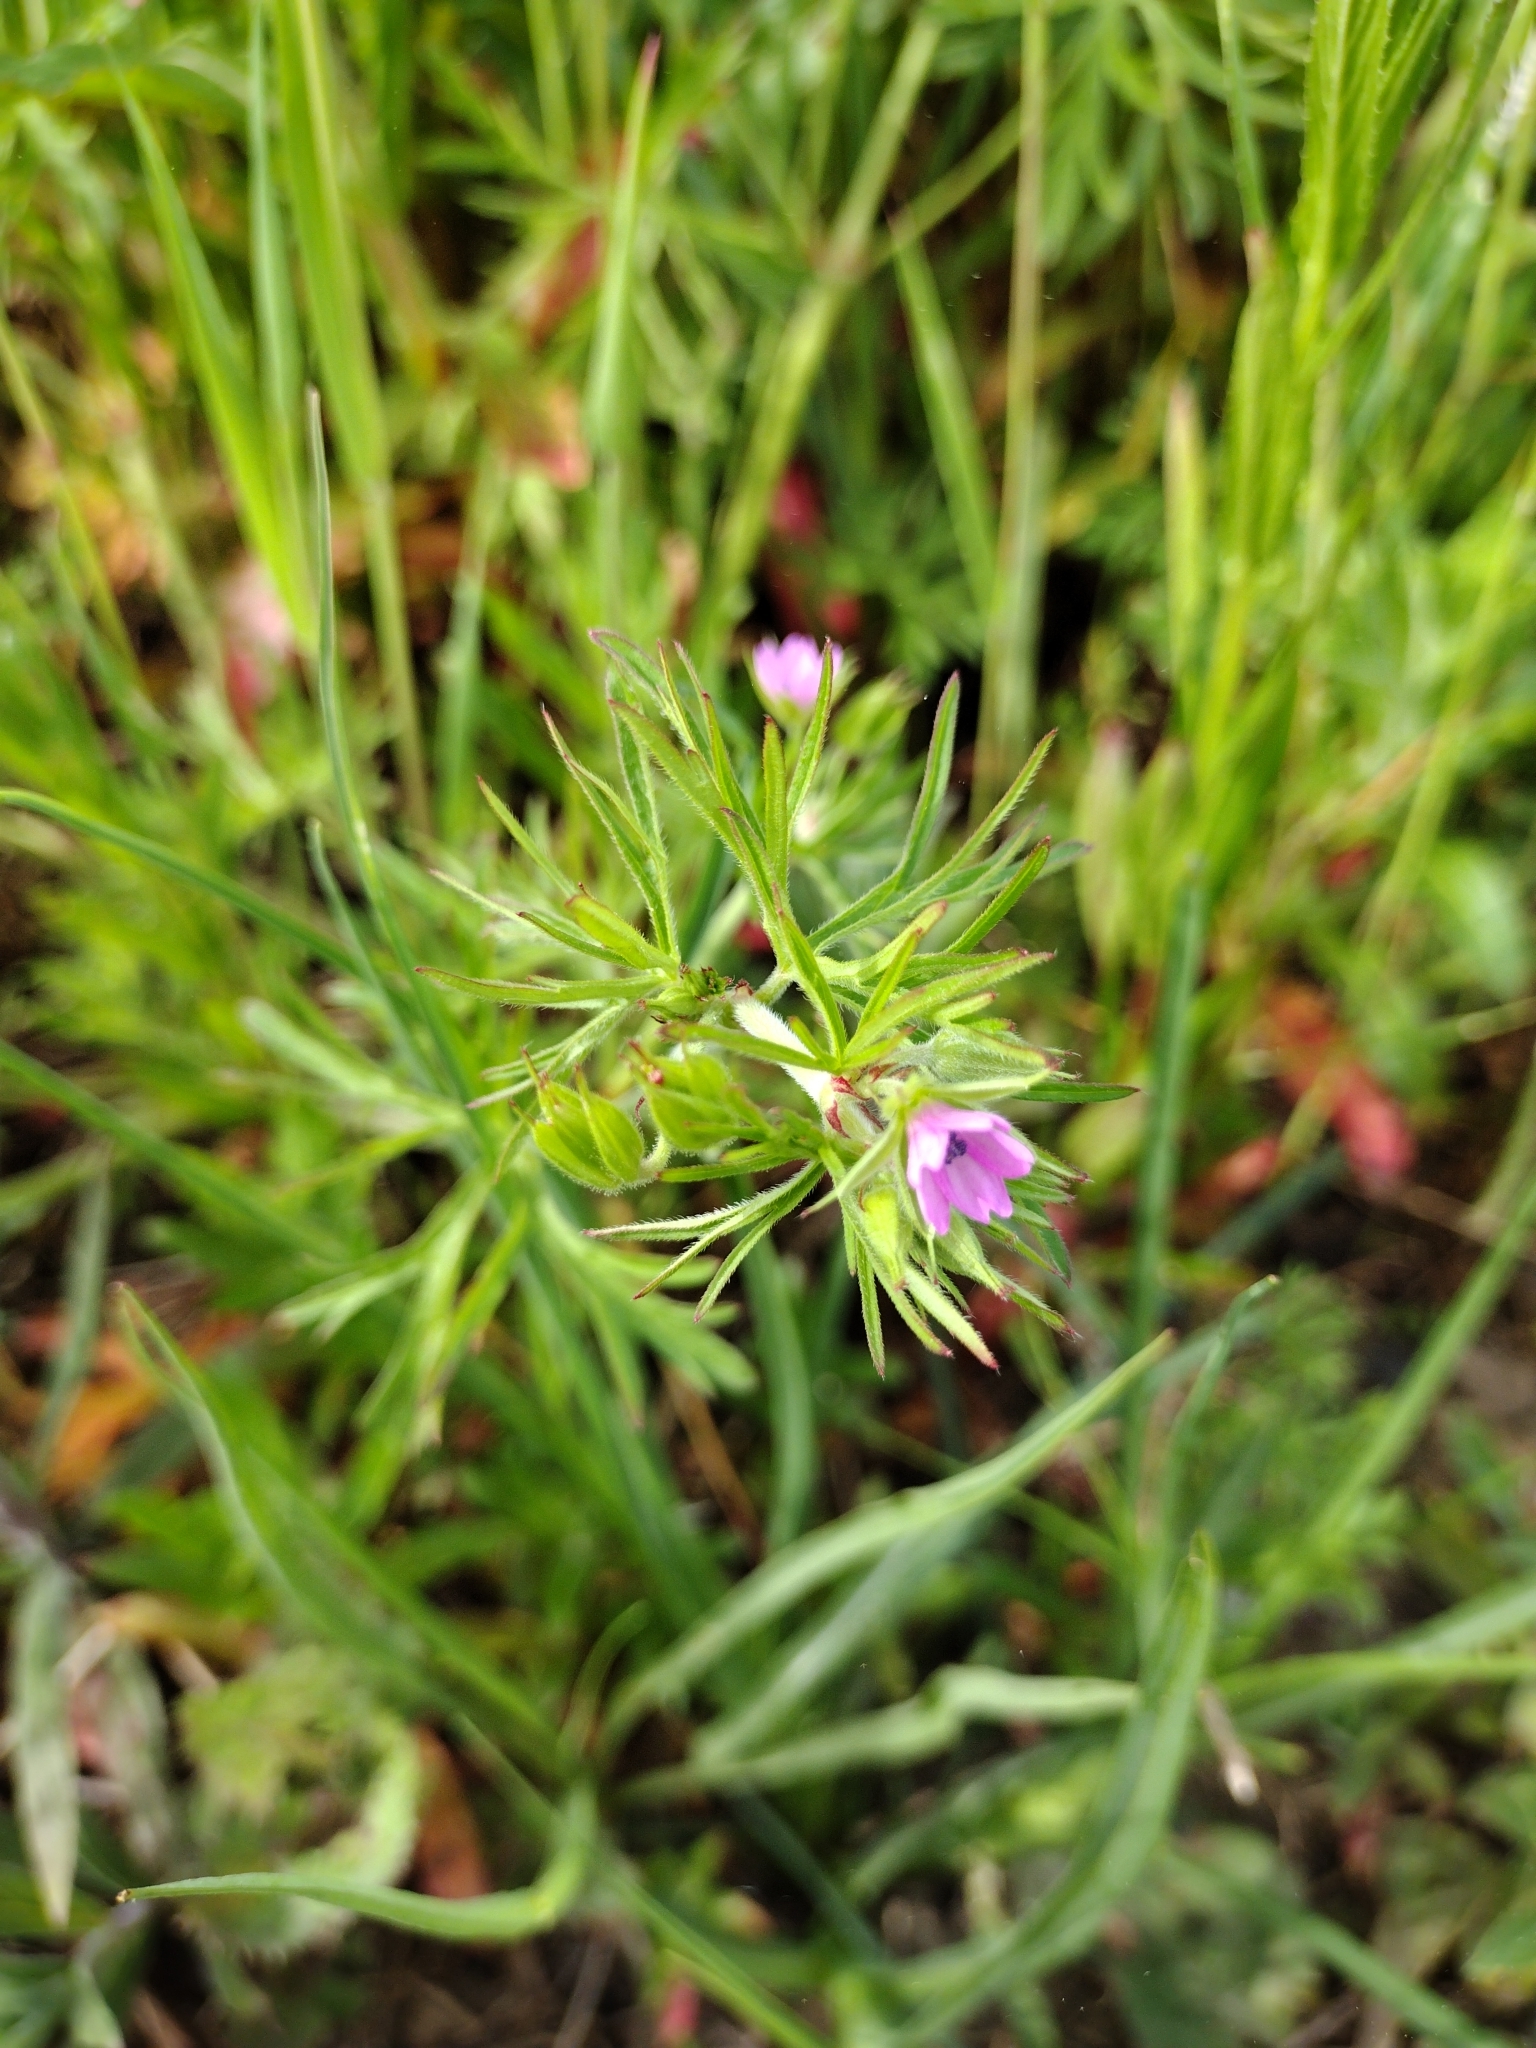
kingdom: Plantae
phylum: Tracheophyta
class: Magnoliopsida
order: Geraniales
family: Geraniaceae
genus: Geranium
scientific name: Geranium dissectum
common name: Cut-leaved crane's-bill
